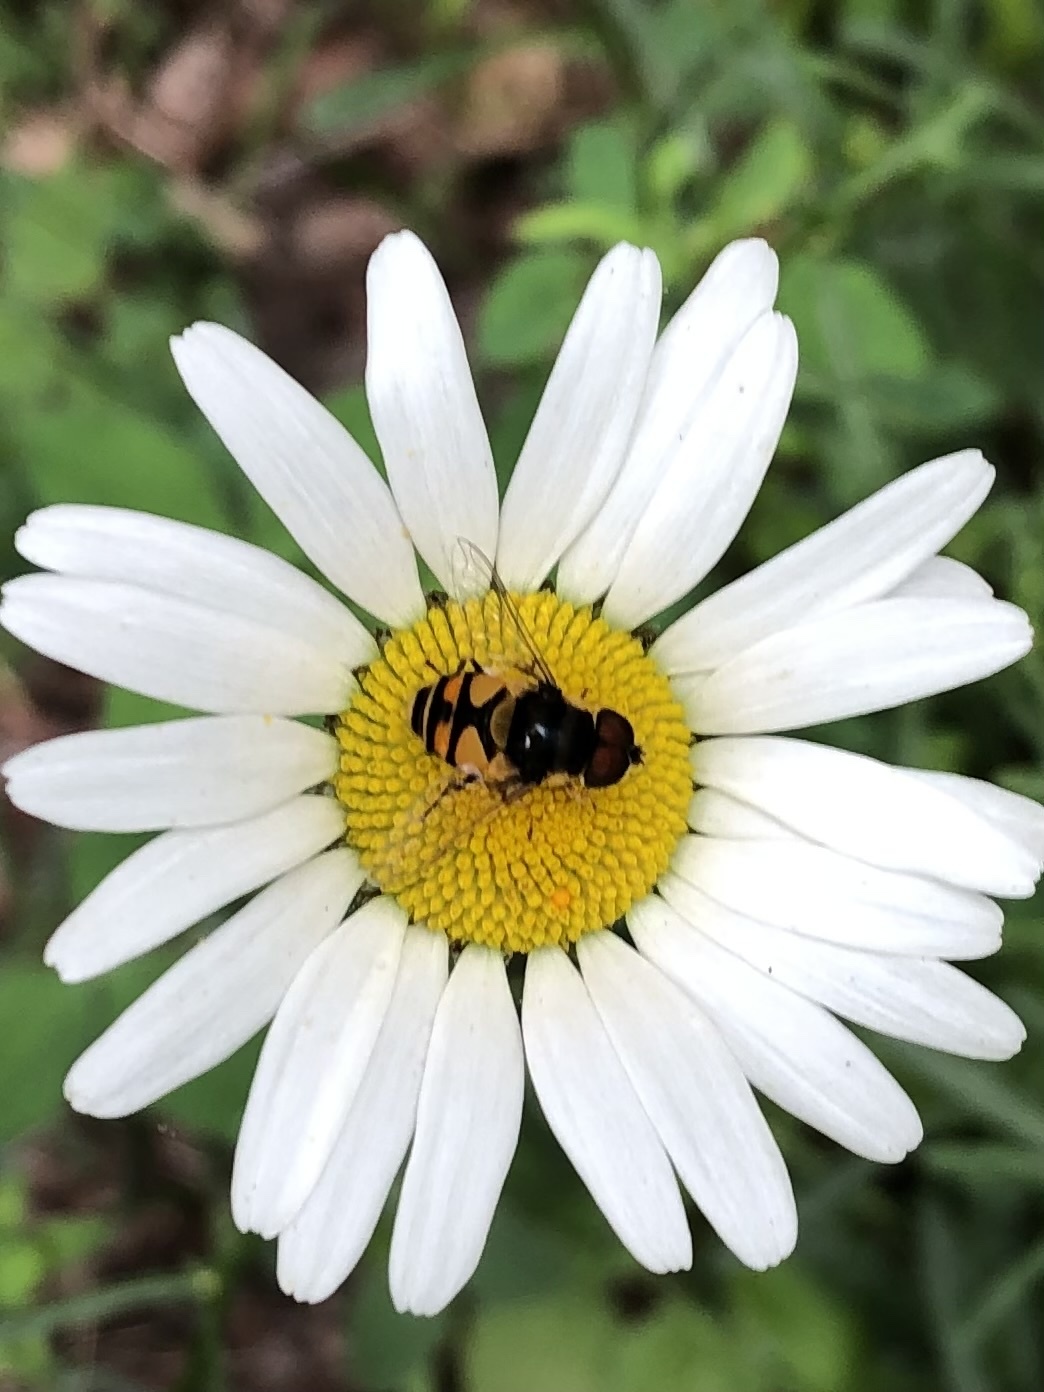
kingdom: Animalia
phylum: Arthropoda
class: Insecta
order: Diptera
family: Syrphidae
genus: Eristalis
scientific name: Eristalis transversa
